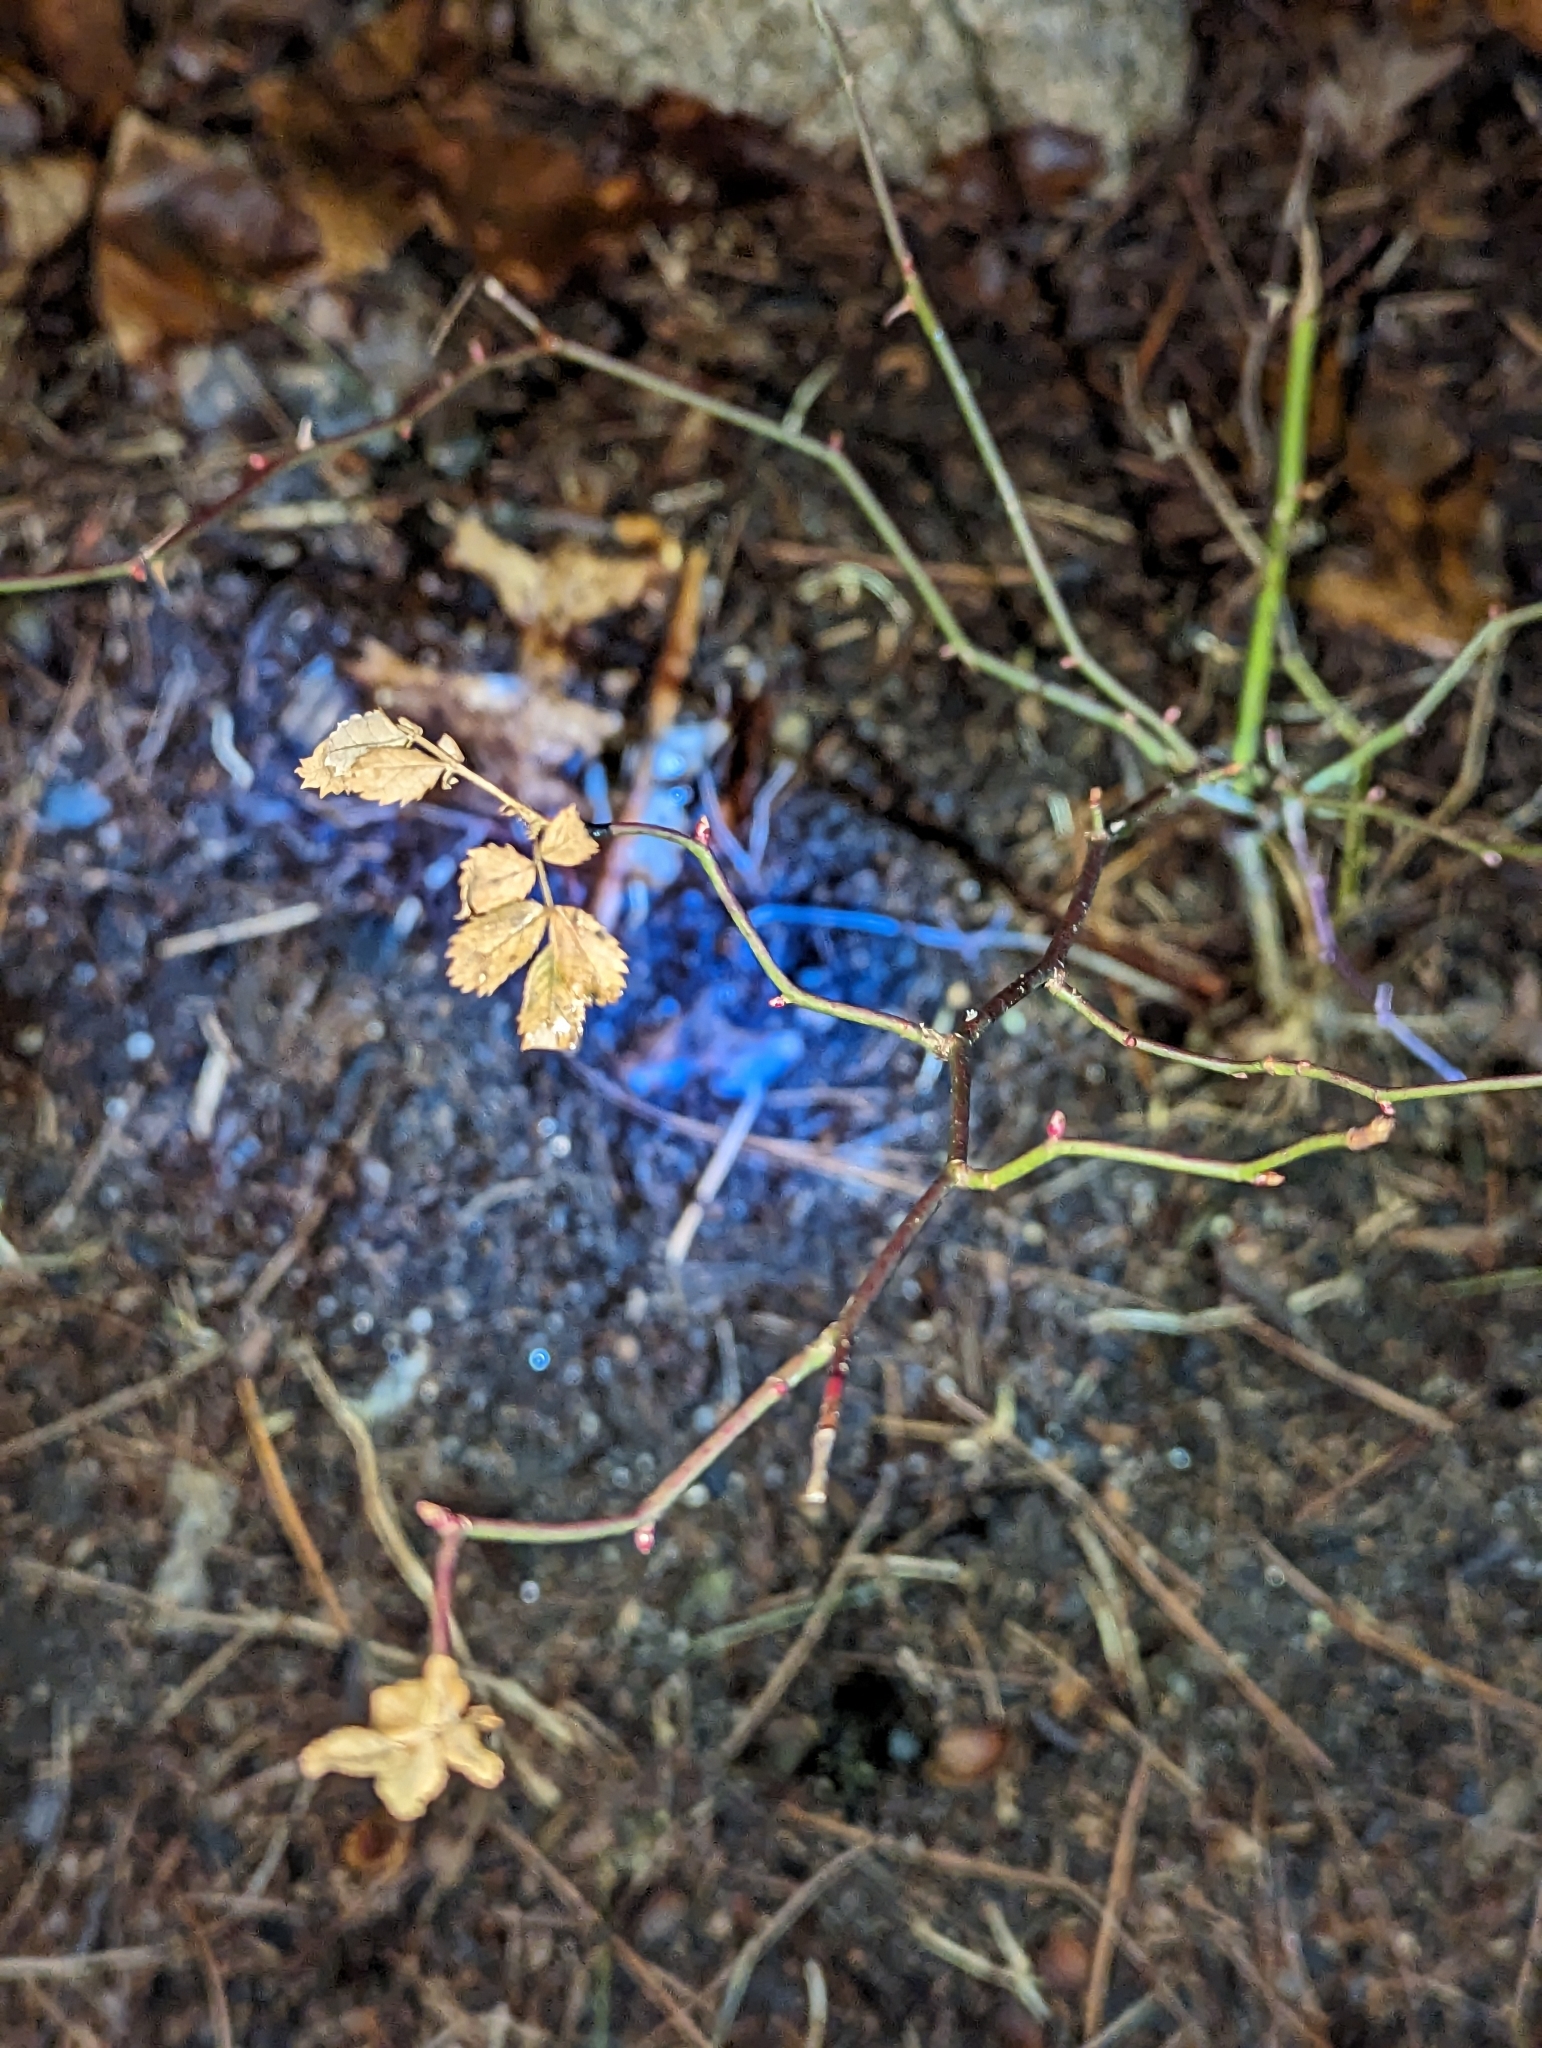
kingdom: Plantae
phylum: Tracheophyta
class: Magnoliopsida
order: Rosales
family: Rosaceae
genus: Rosa
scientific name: Rosa multiflora
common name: Multiflora rose
